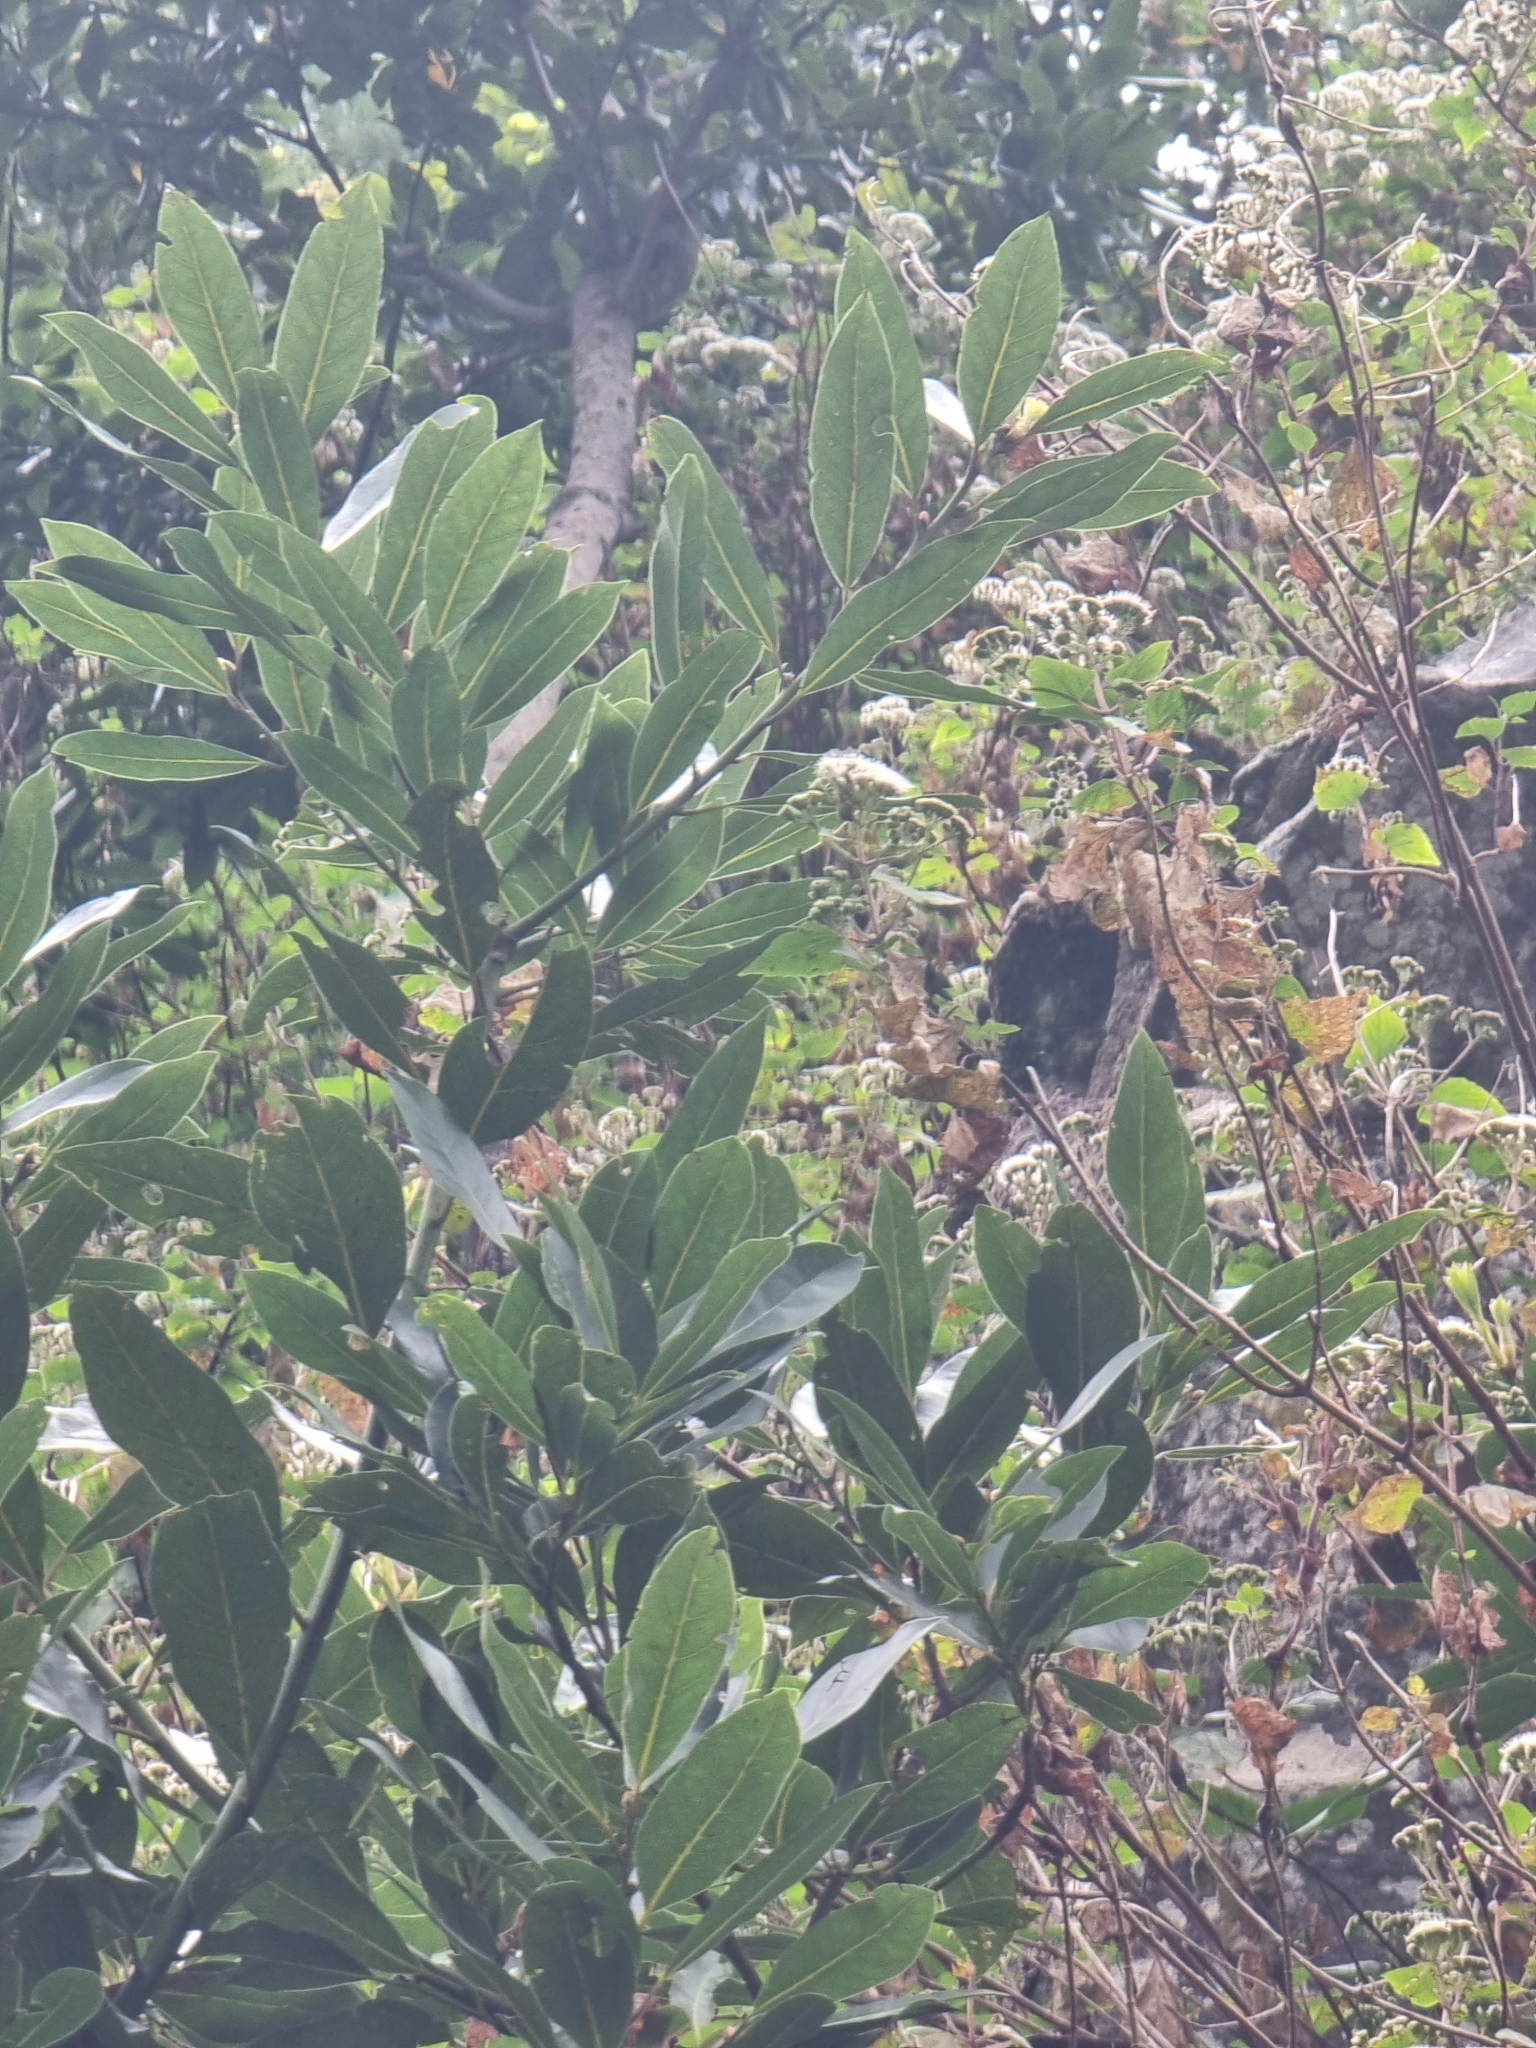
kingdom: Plantae
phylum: Tracheophyta
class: Magnoliopsida
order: Laurales
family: Lauraceae
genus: Laurus
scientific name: Laurus novocanariensis
